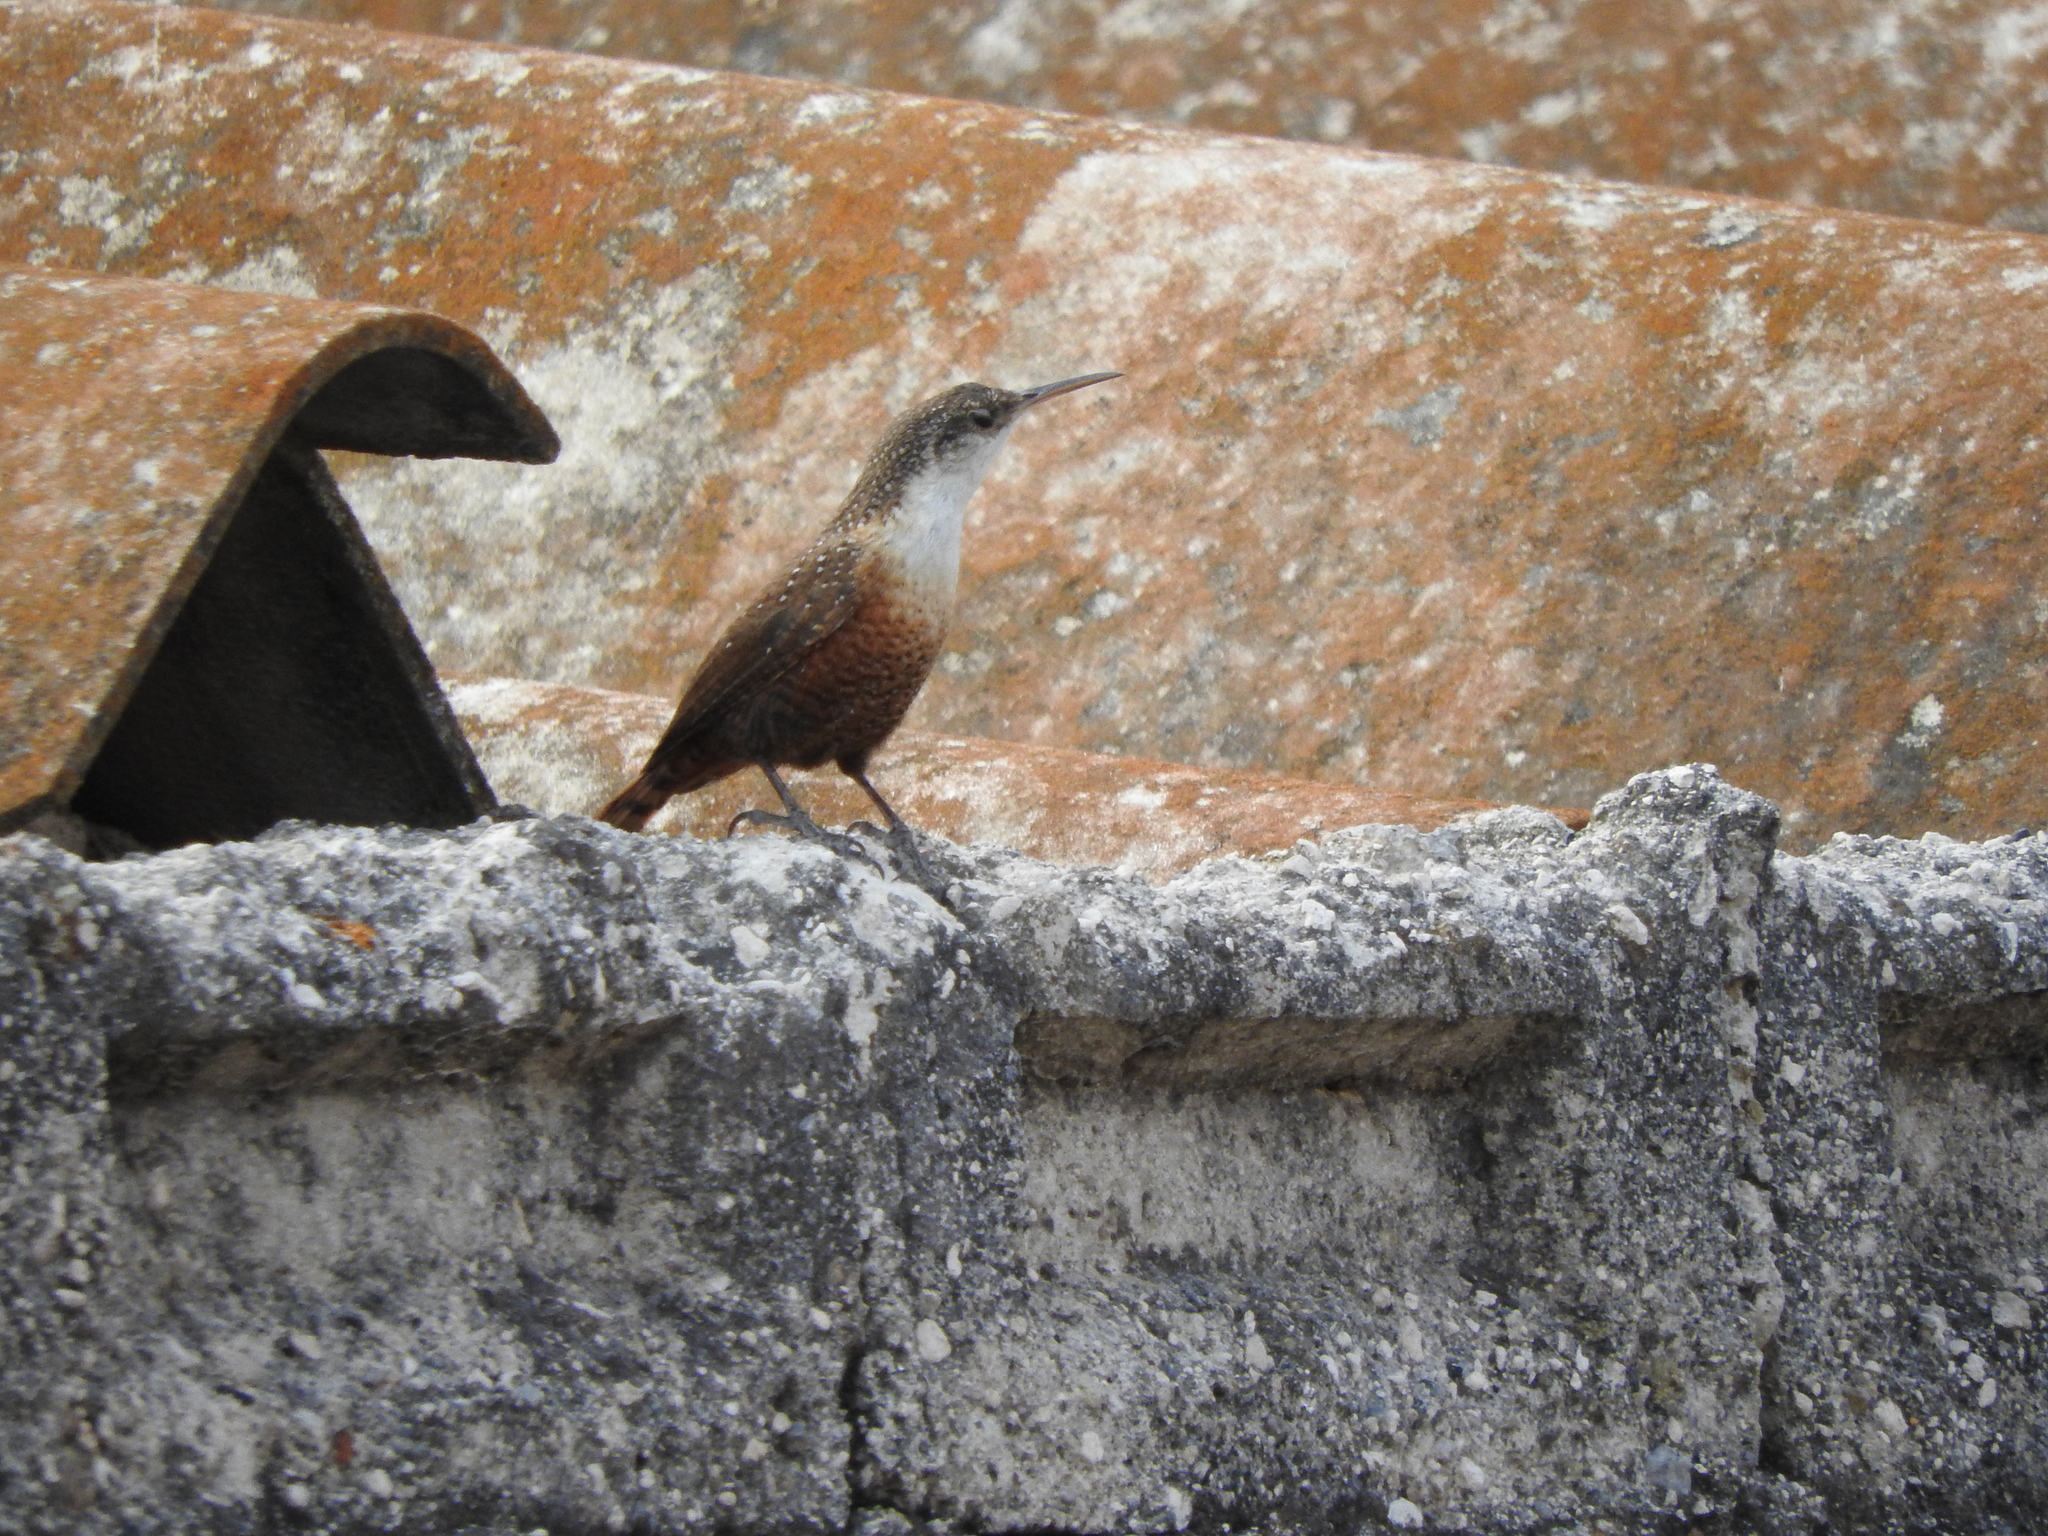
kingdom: Animalia
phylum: Chordata
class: Aves
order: Passeriformes
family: Troglodytidae
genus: Catherpes
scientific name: Catherpes mexicanus
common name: Canyon wren
